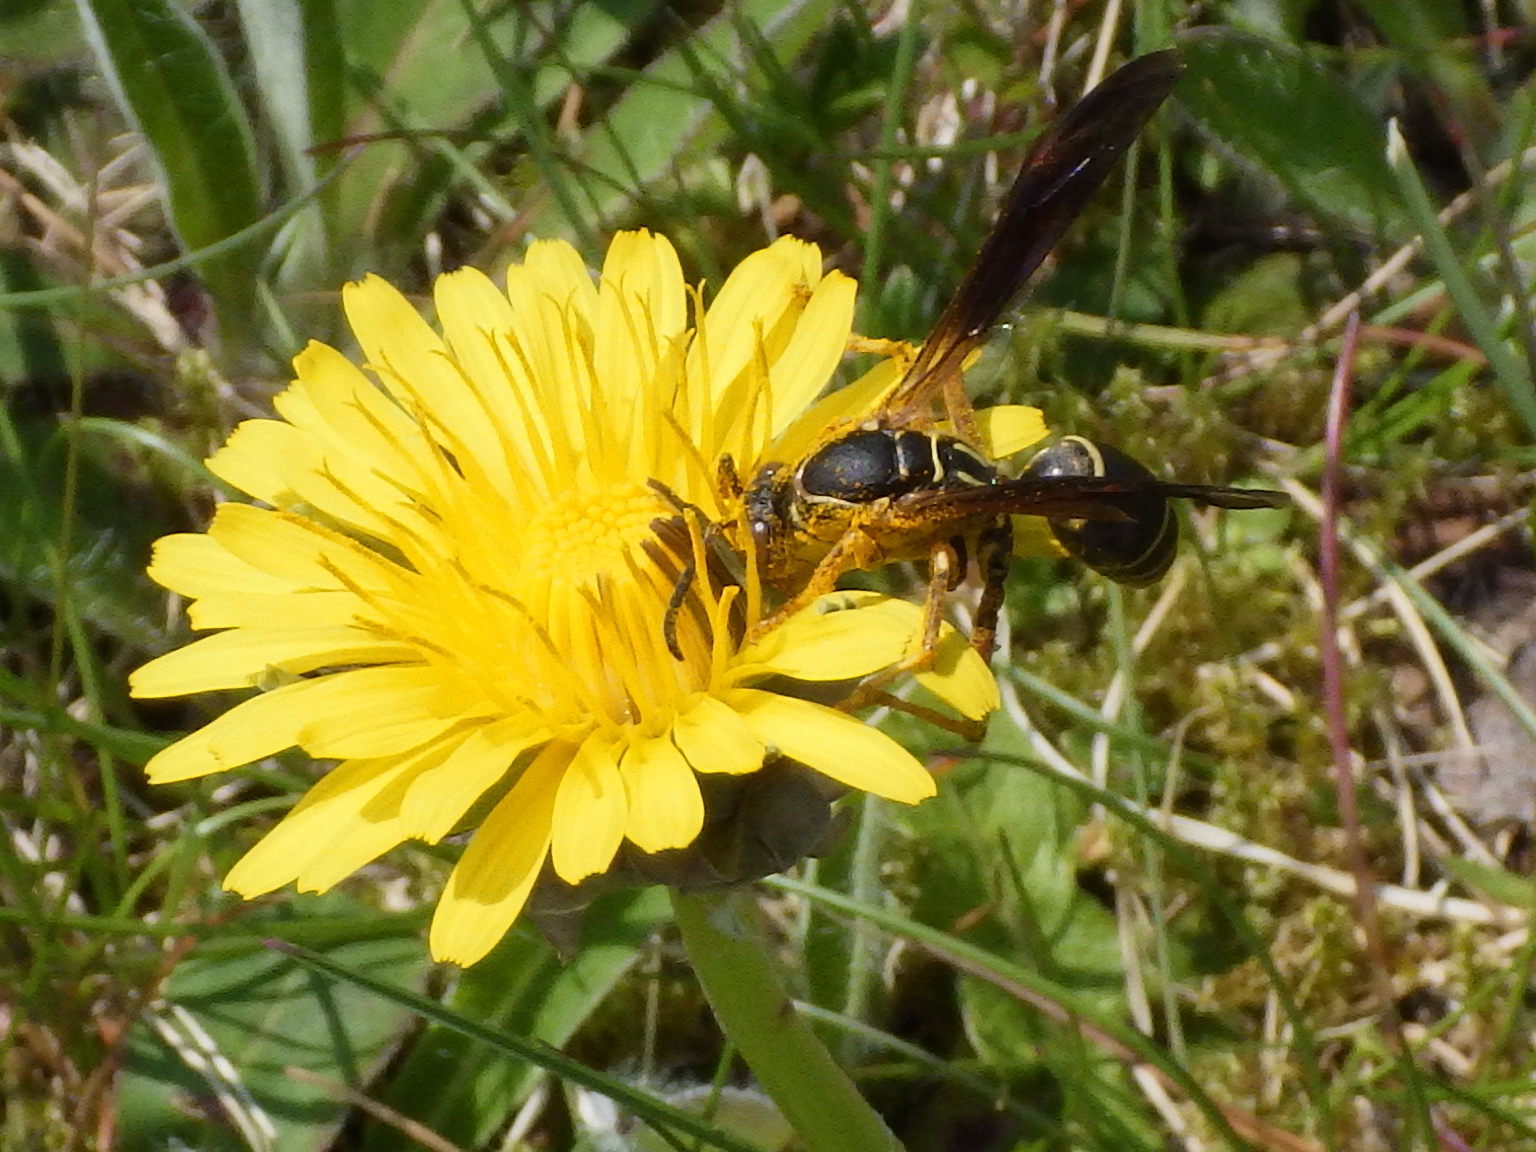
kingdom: Animalia
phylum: Arthropoda
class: Insecta
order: Hymenoptera
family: Eumenidae
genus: Polistes
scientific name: Polistes fuscatus
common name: Dark paper wasp
